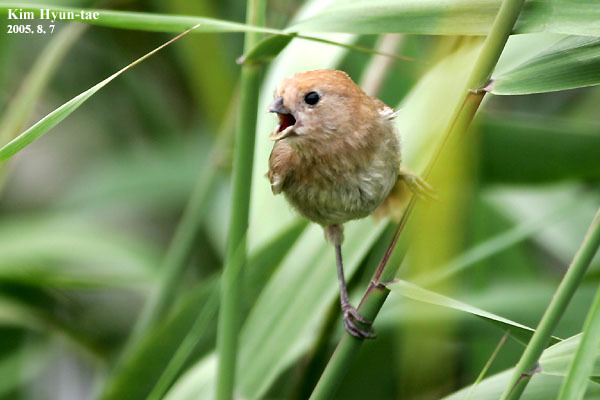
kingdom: Animalia
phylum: Chordata
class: Aves
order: Passeriformes
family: Sylviidae
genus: Sinosuthora
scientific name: Sinosuthora webbiana
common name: Vinous-throated parrotbill
